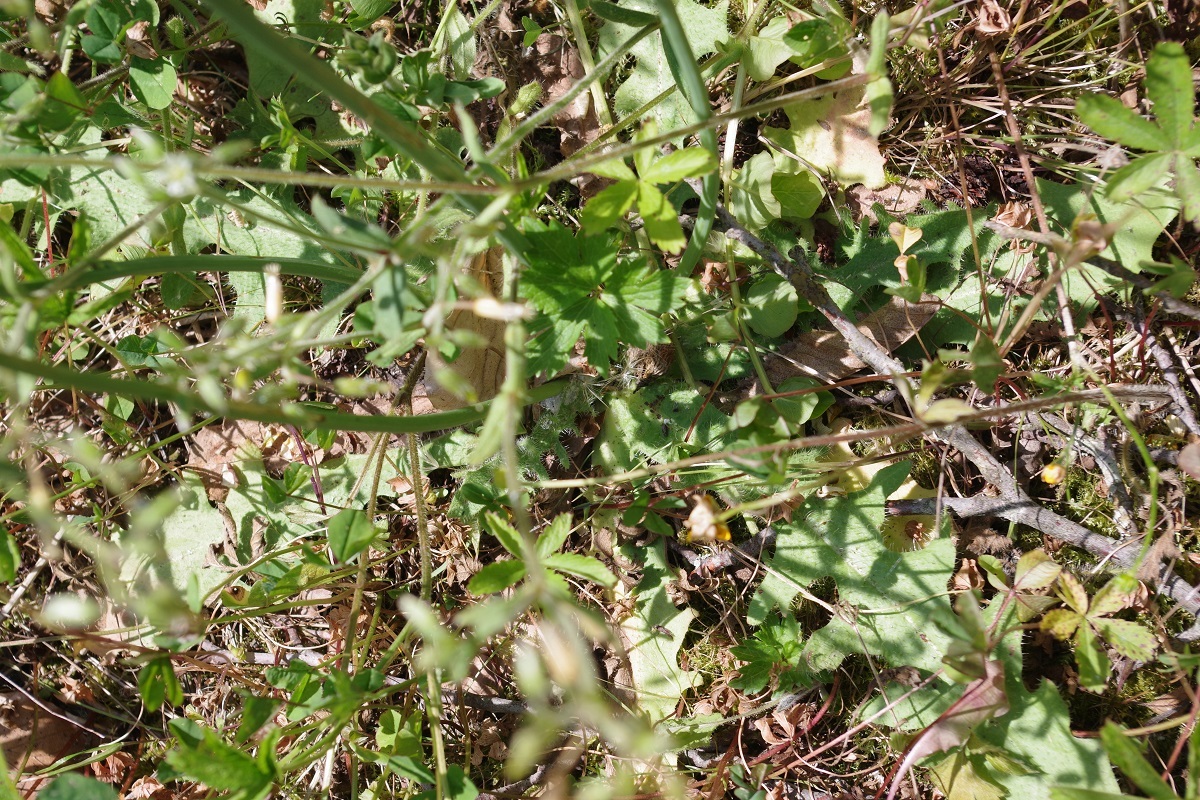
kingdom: Plantae
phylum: Tracheophyta
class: Magnoliopsida
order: Asterales
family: Asteraceae
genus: Hypochaeris
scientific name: Hypochaeris radicata
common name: Flatweed
